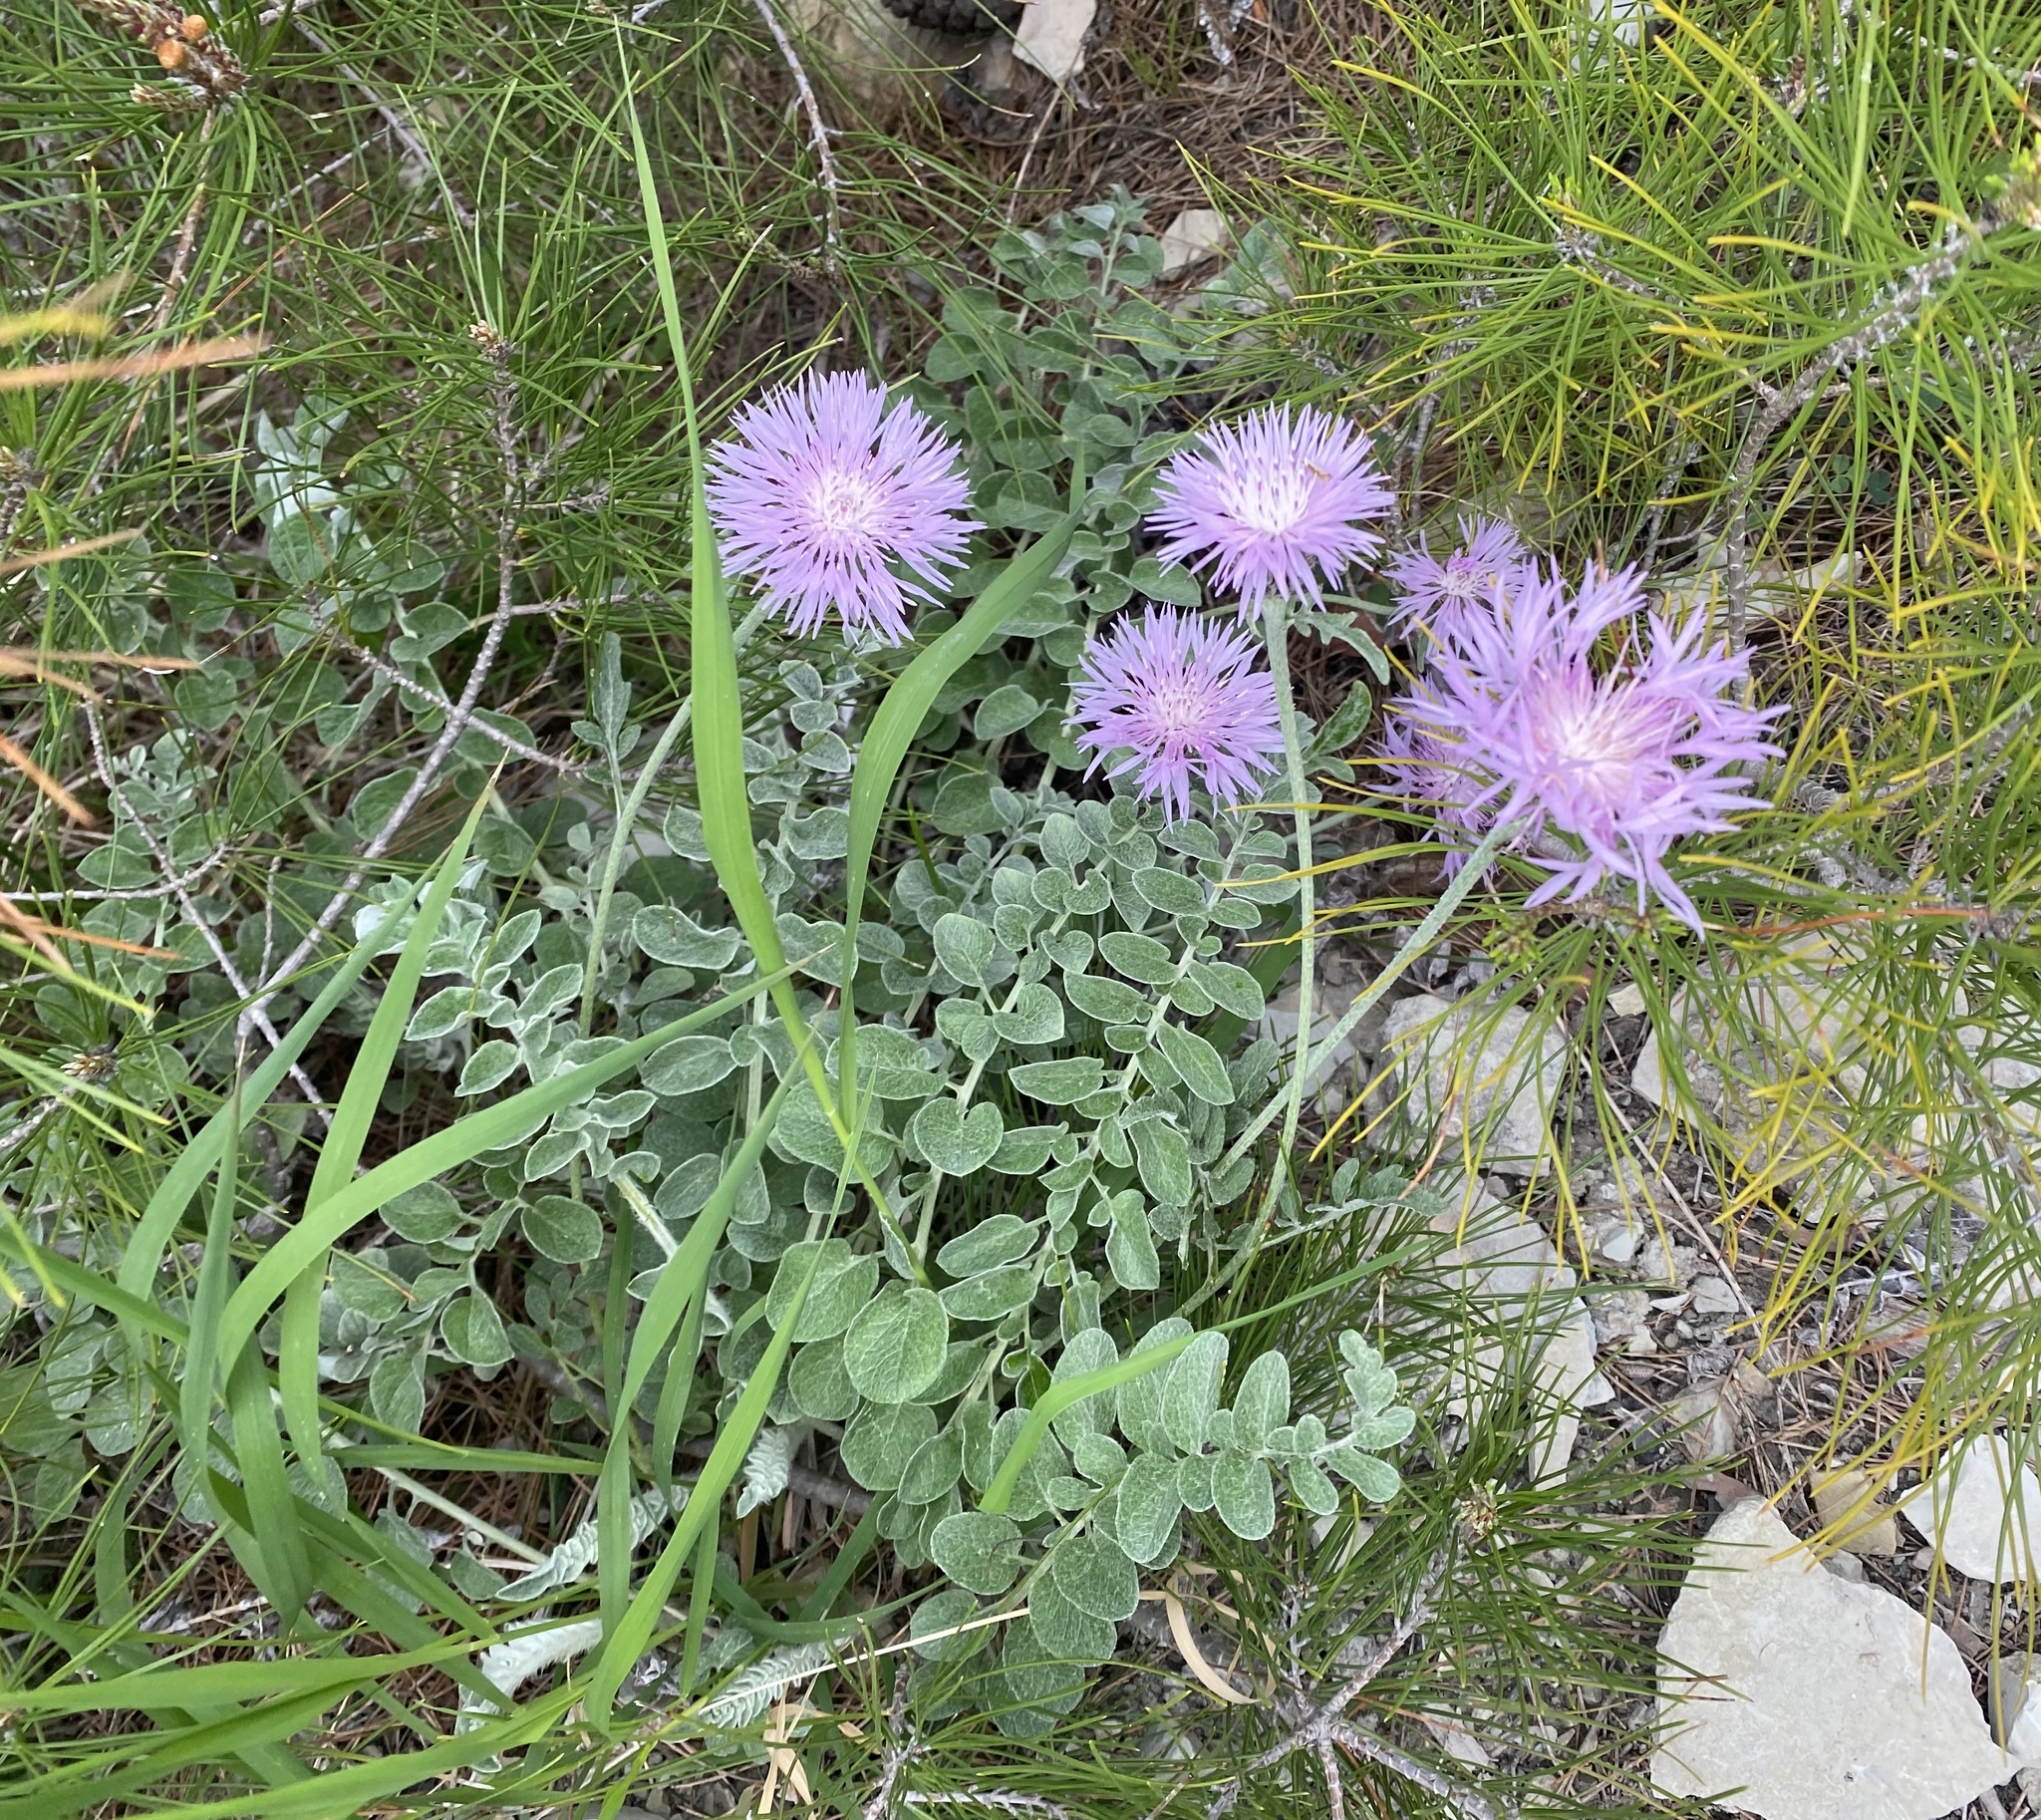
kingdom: Plantae
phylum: Tracheophyta
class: Magnoliopsida
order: Asterales
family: Asteraceae
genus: Psephellus
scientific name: Psephellus declinatus
